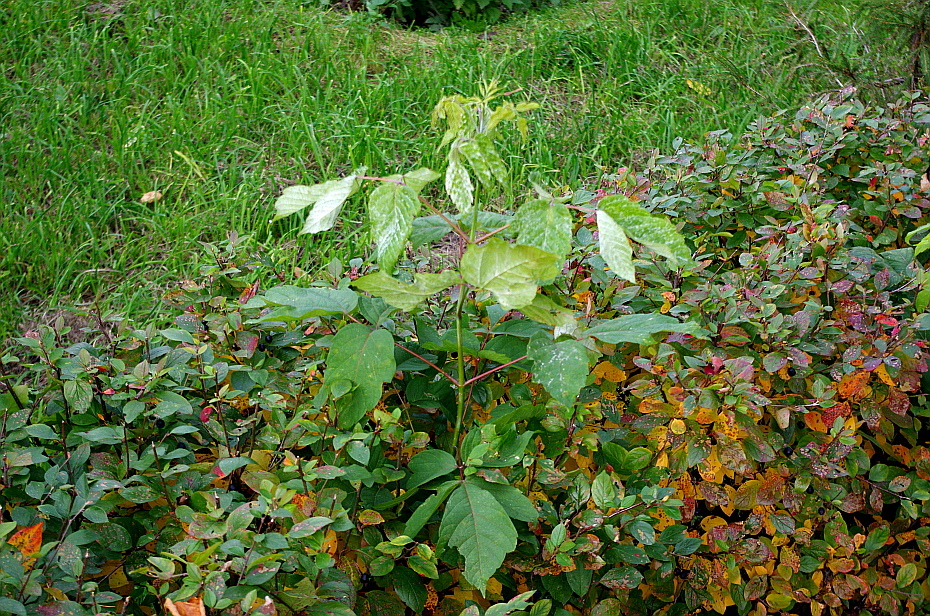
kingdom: Plantae
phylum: Tracheophyta
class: Magnoliopsida
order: Sapindales
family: Sapindaceae
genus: Acer
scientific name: Acer negundo
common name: Ashleaf maple
